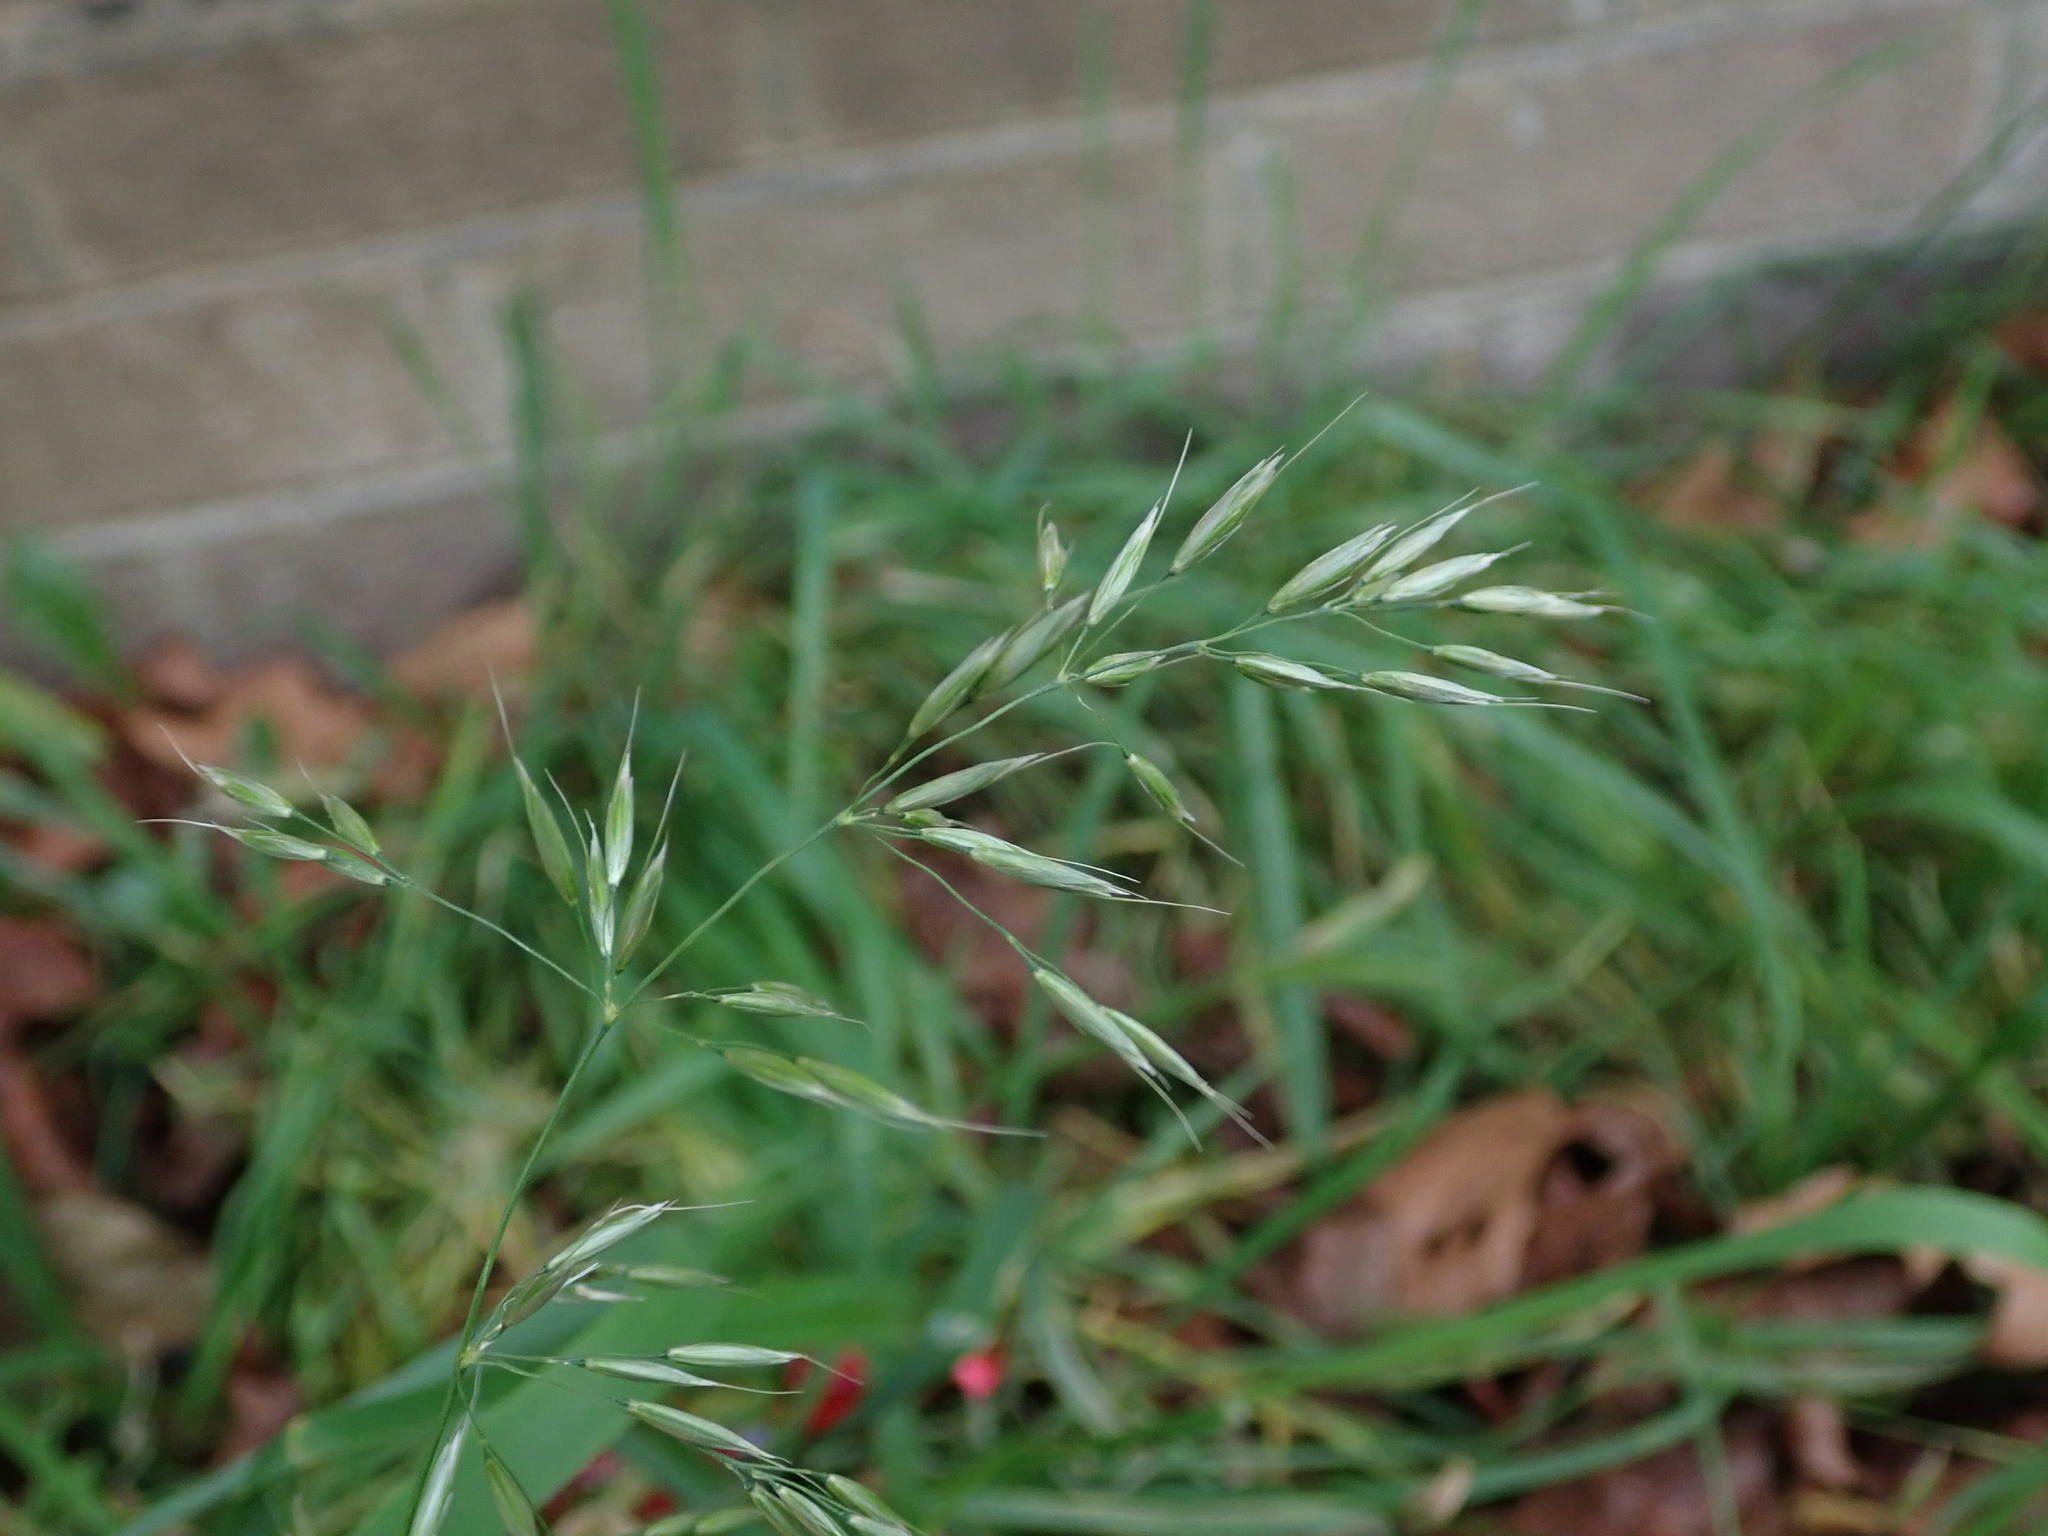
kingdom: Plantae
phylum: Tracheophyta
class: Liliopsida
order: Poales
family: Poaceae
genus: Arrhenatherum
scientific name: Arrhenatherum elatius
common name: Tall oatgrass
